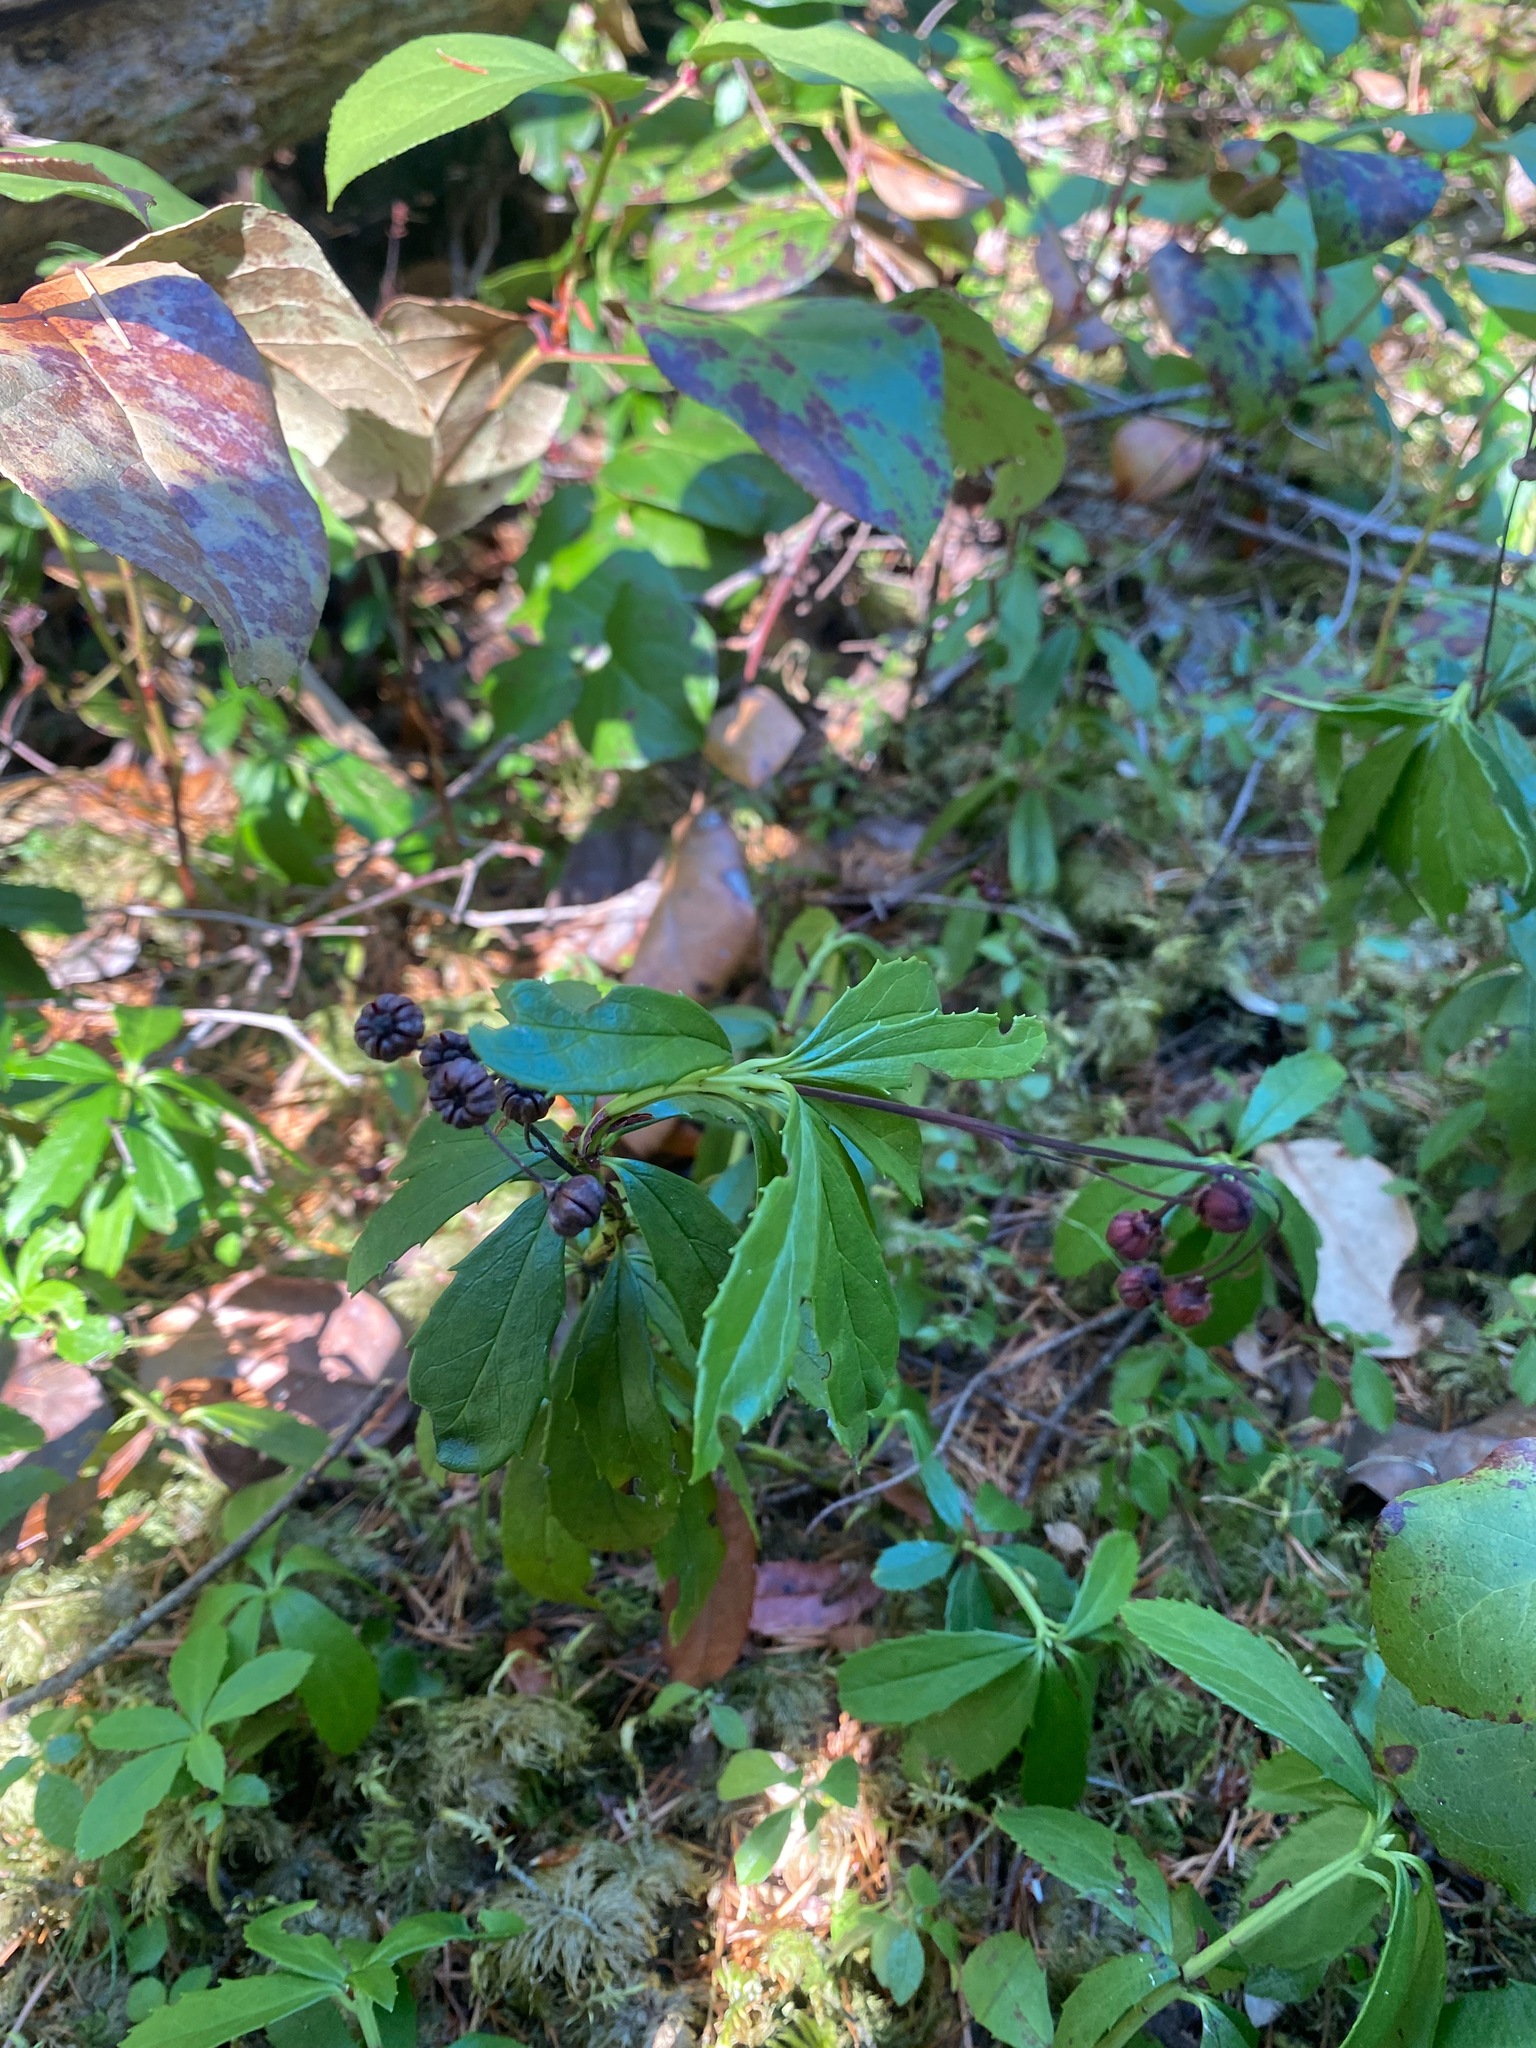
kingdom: Plantae
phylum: Tracheophyta
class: Magnoliopsida
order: Ericales
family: Ericaceae
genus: Chimaphila
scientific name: Chimaphila umbellata
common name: Pipsissewa
